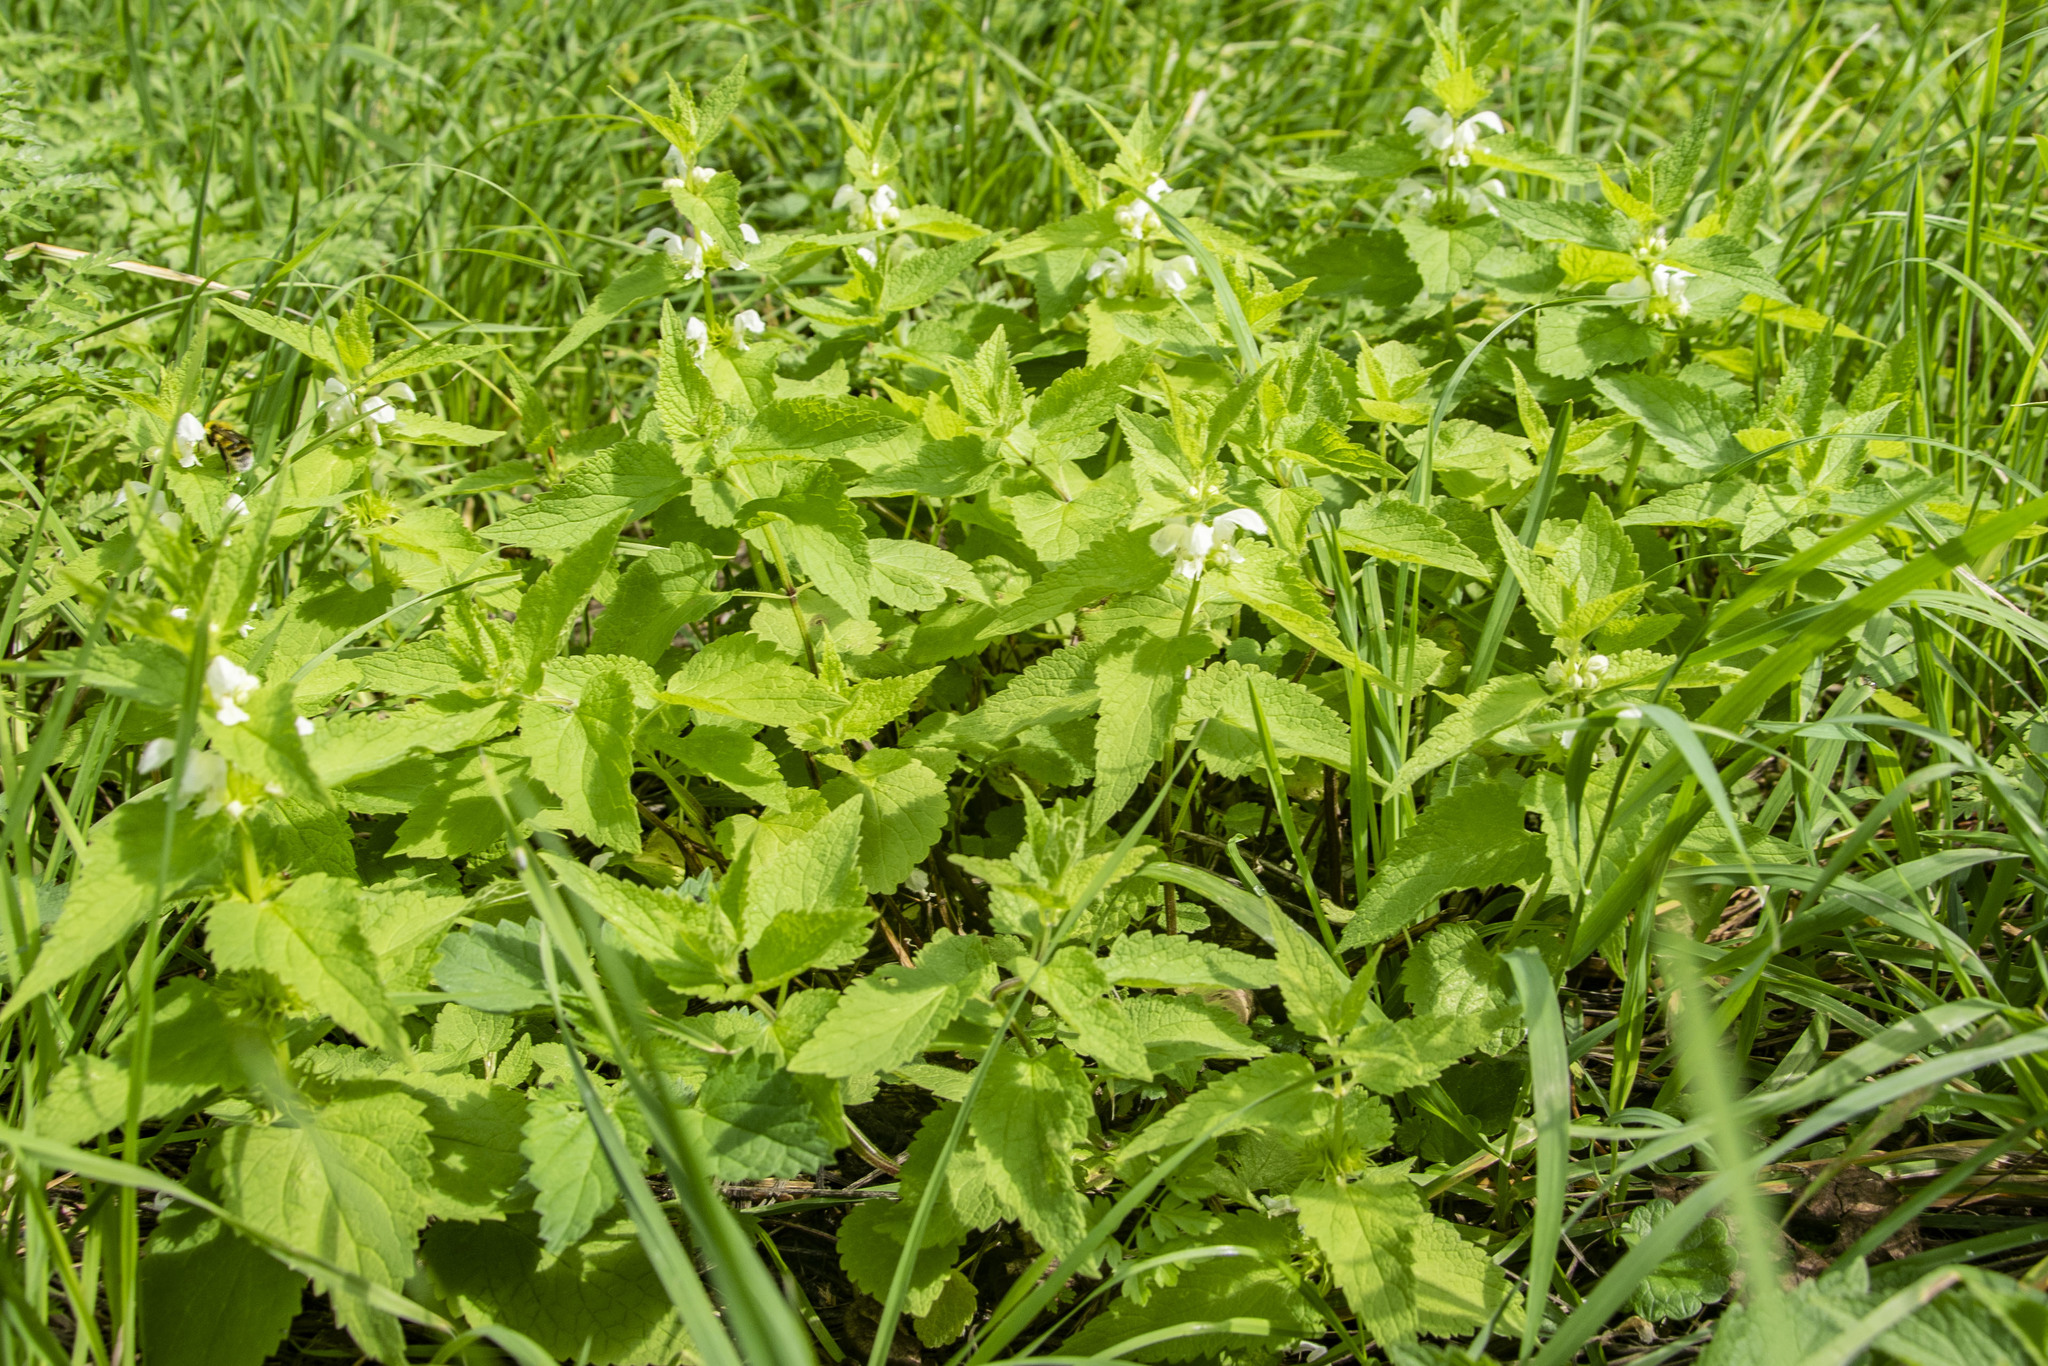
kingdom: Plantae
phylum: Tracheophyta
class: Magnoliopsida
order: Lamiales
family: Lamiaceae
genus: Lamium
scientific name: Lamium album
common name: White dead-nettle
